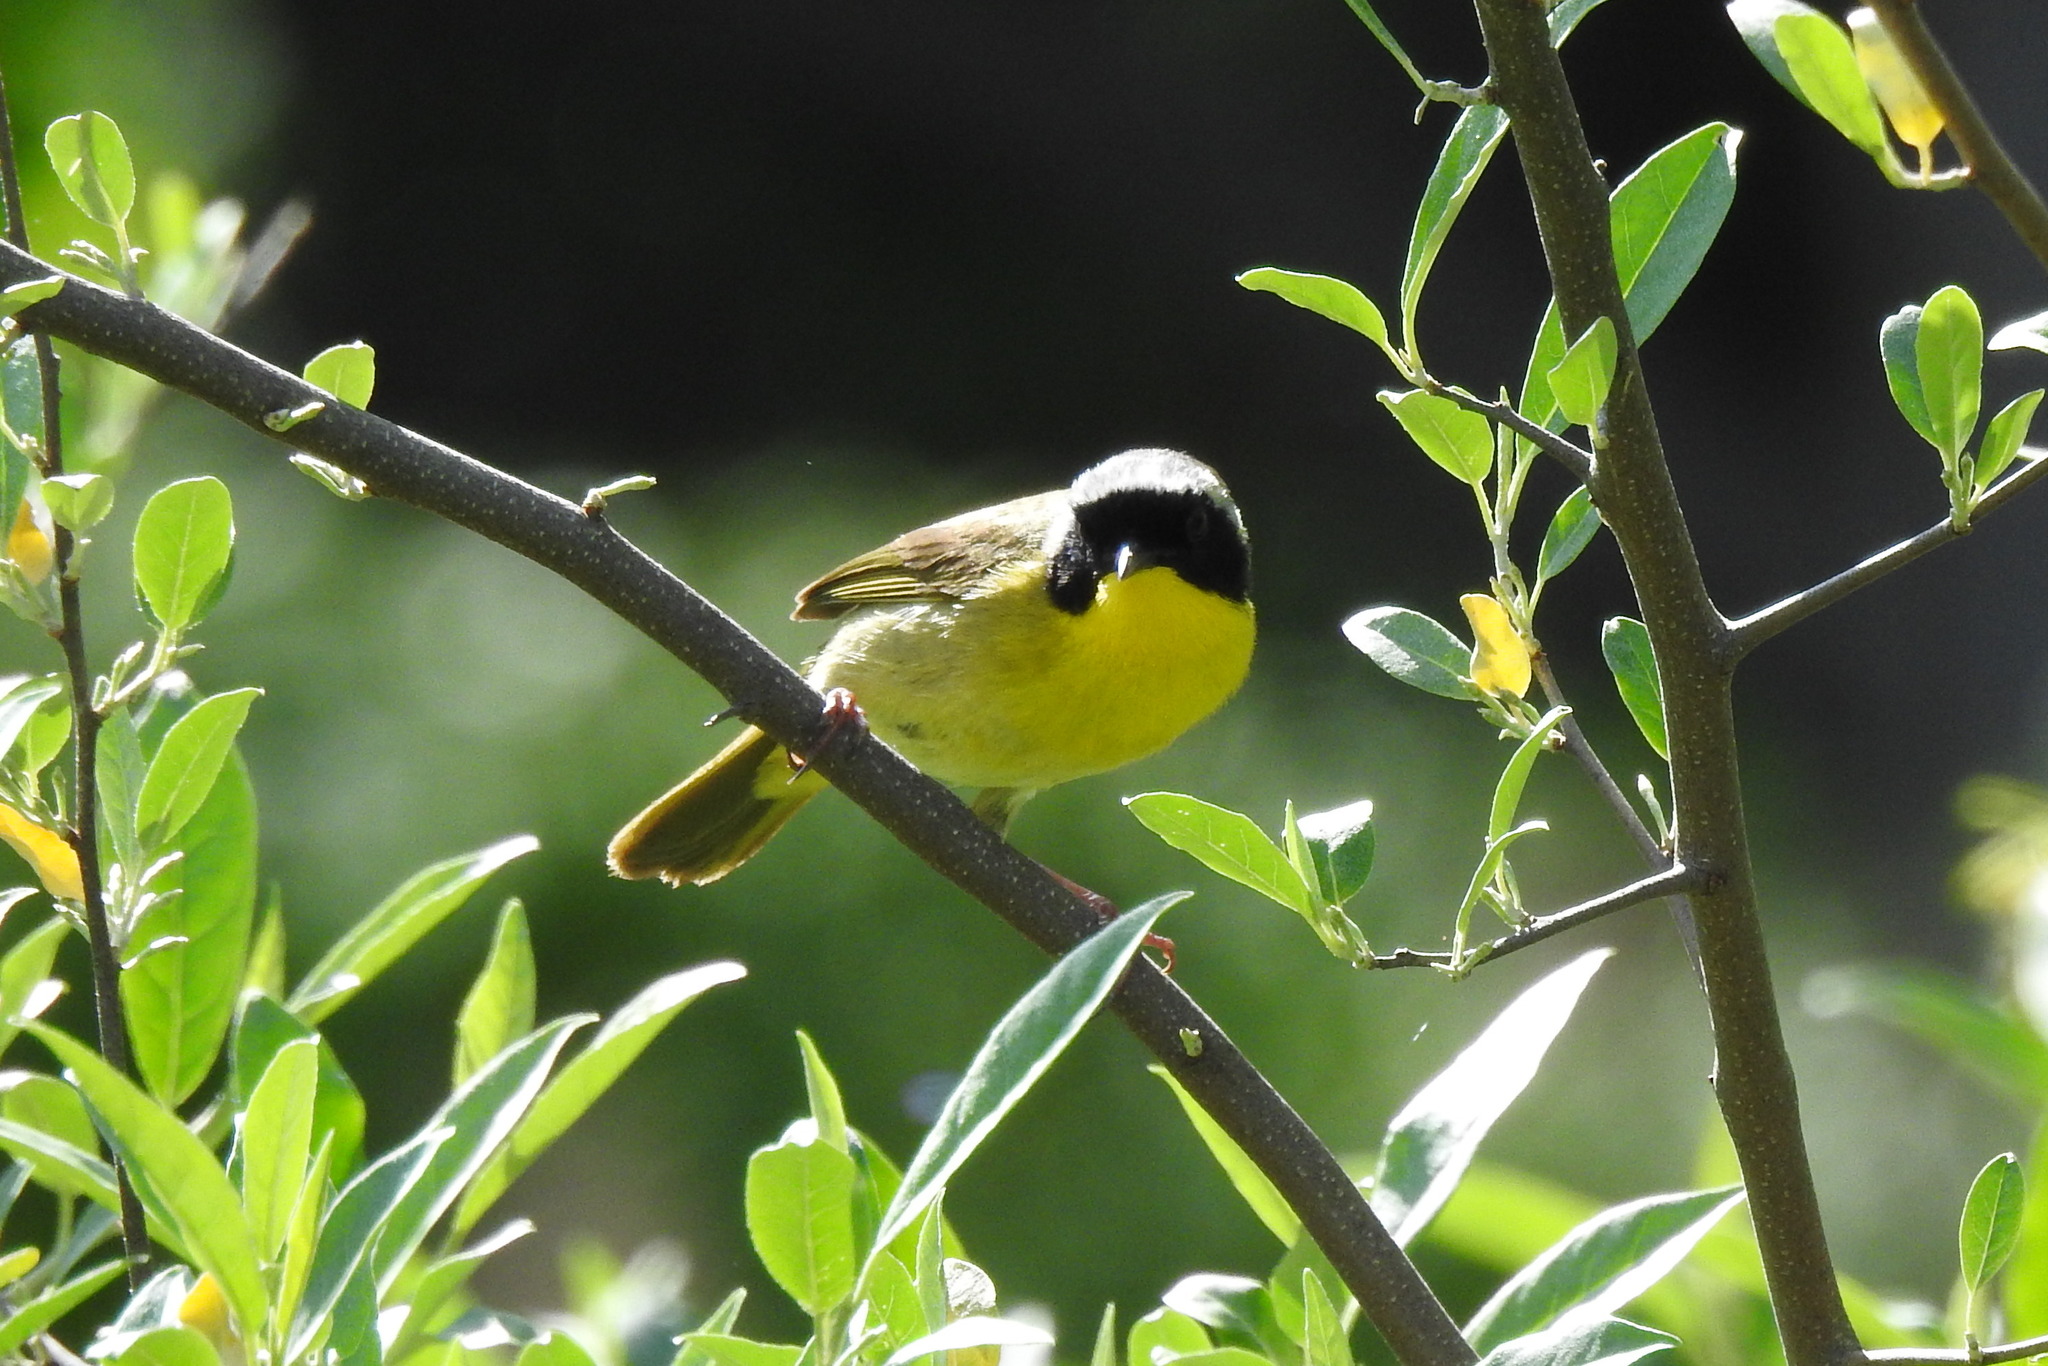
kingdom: Animalia
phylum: Chordata
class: Aves
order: Passeriformes
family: Parulidae
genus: Geothlypis
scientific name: Geothlypis trichas
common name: Common yellowthroat
